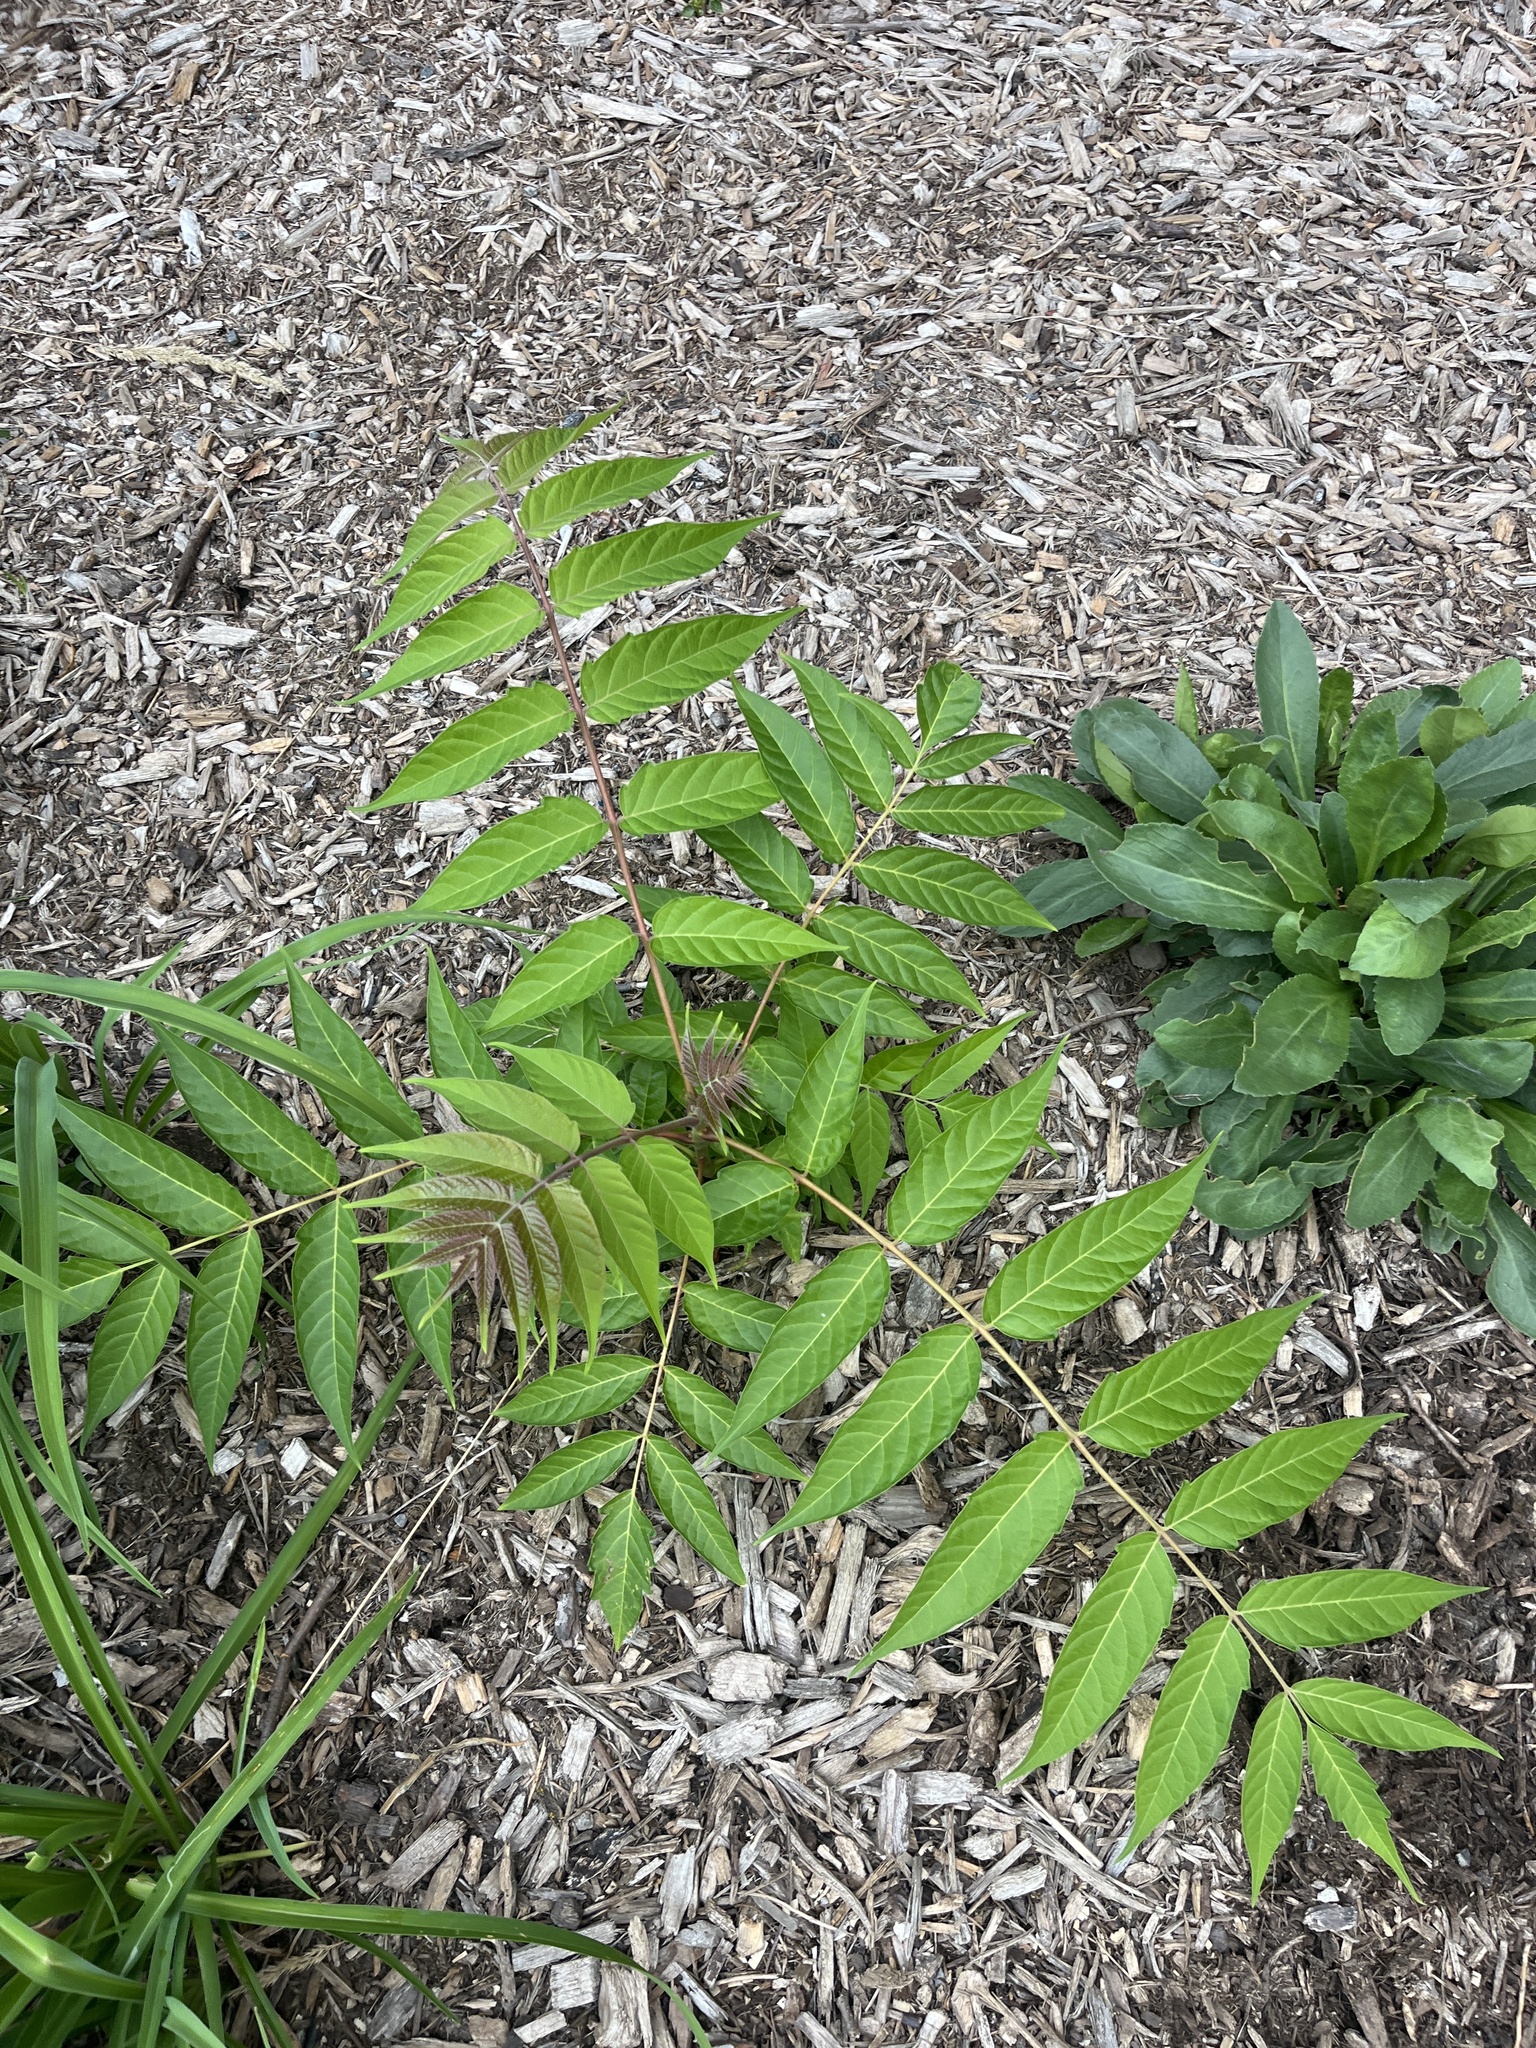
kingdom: Plantae
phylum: Tracheophyta
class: Magnoliopsida
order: Sapindales
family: Simaroubaceae
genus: Ailanthus
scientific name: Ailanthus altissima
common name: Tree-of-heaven
